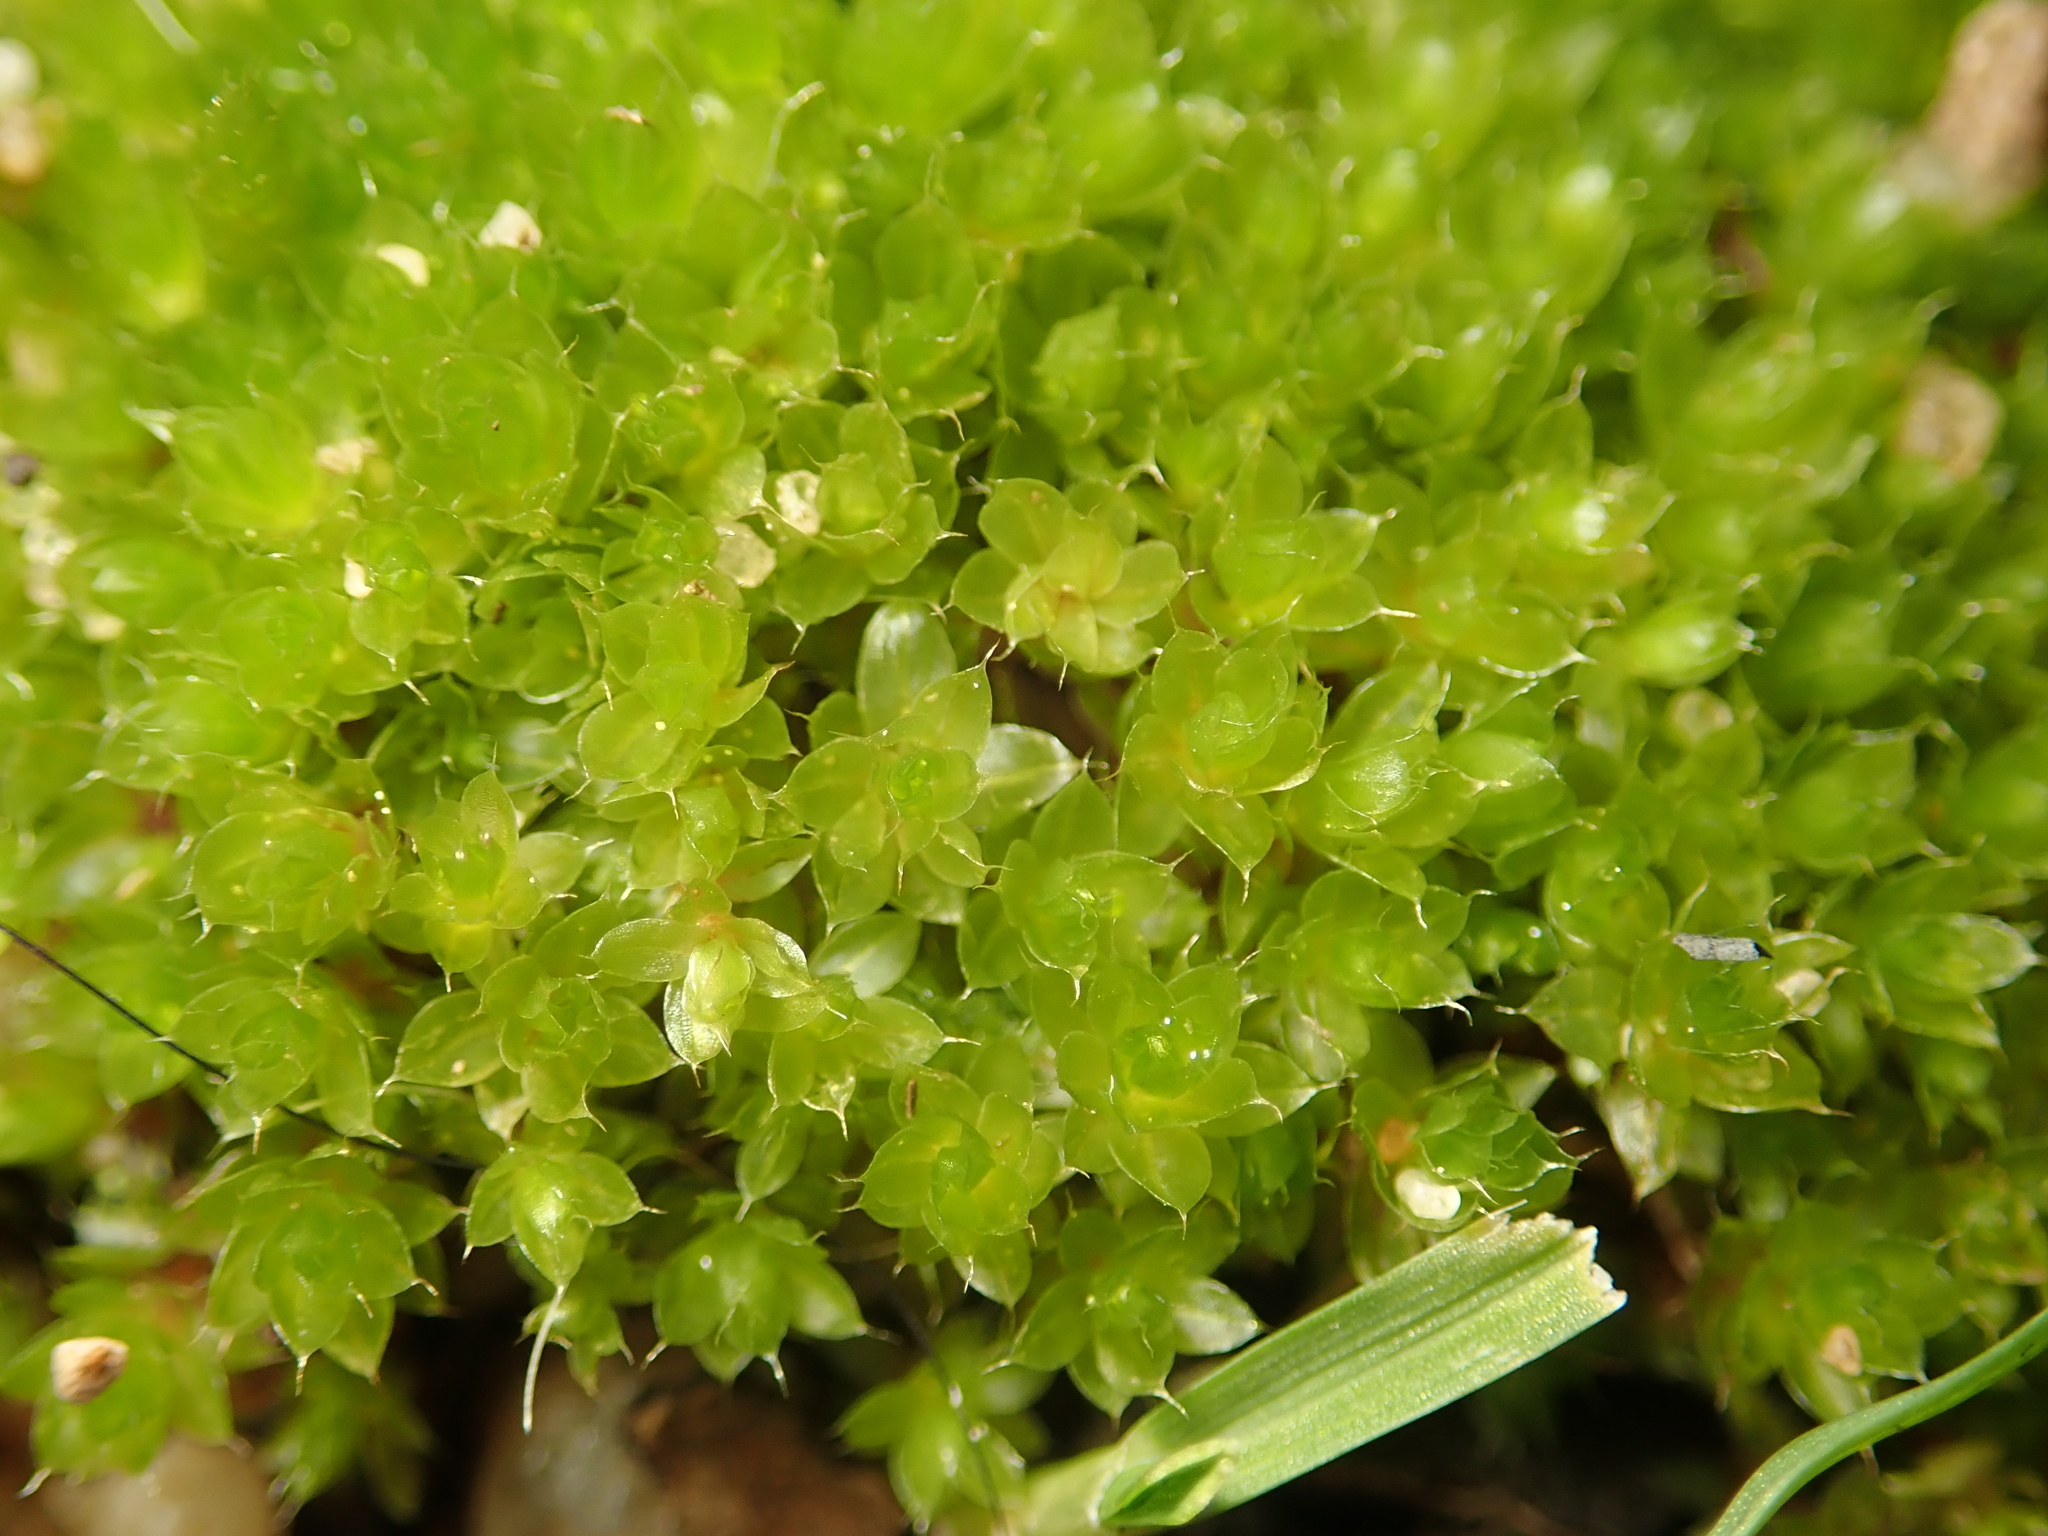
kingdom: Plantae
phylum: Bryophyta
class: Bryopsida
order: Bryales
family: Bryaceae
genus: Rosulabryum
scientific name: Rosulabryum capillare
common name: Capillary thread-moss
